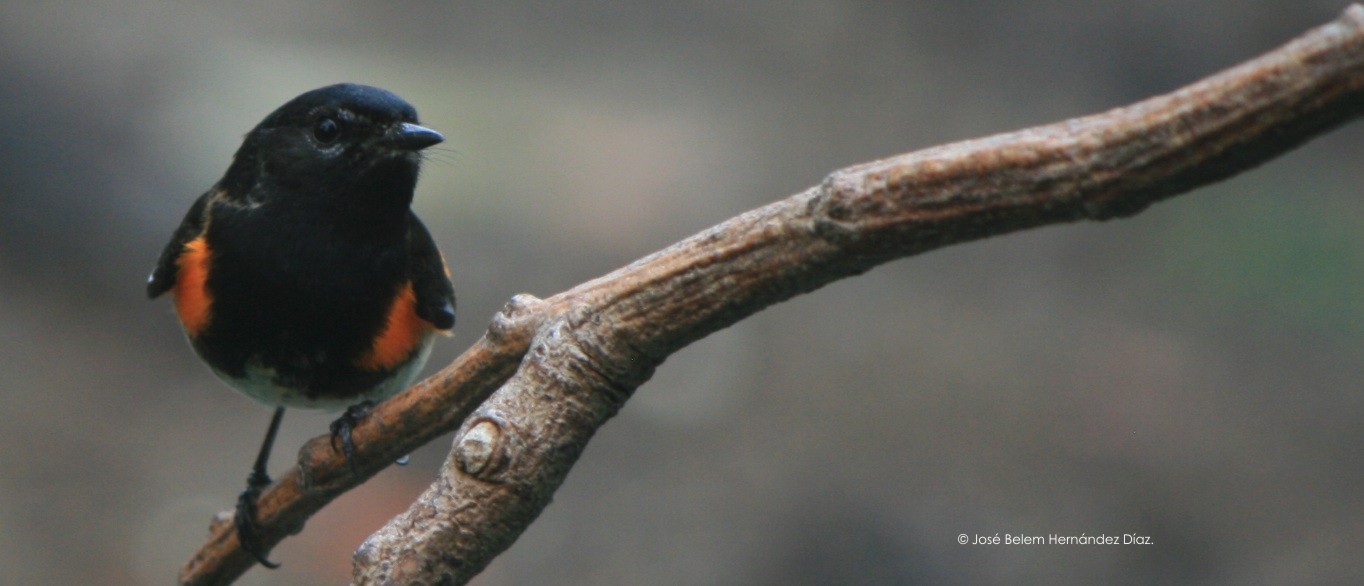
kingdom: Animalia
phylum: Chordata
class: Aves
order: Passeriformes
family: Parulidae
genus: Setophaga
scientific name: Setophaga ruticilla
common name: American redstart
